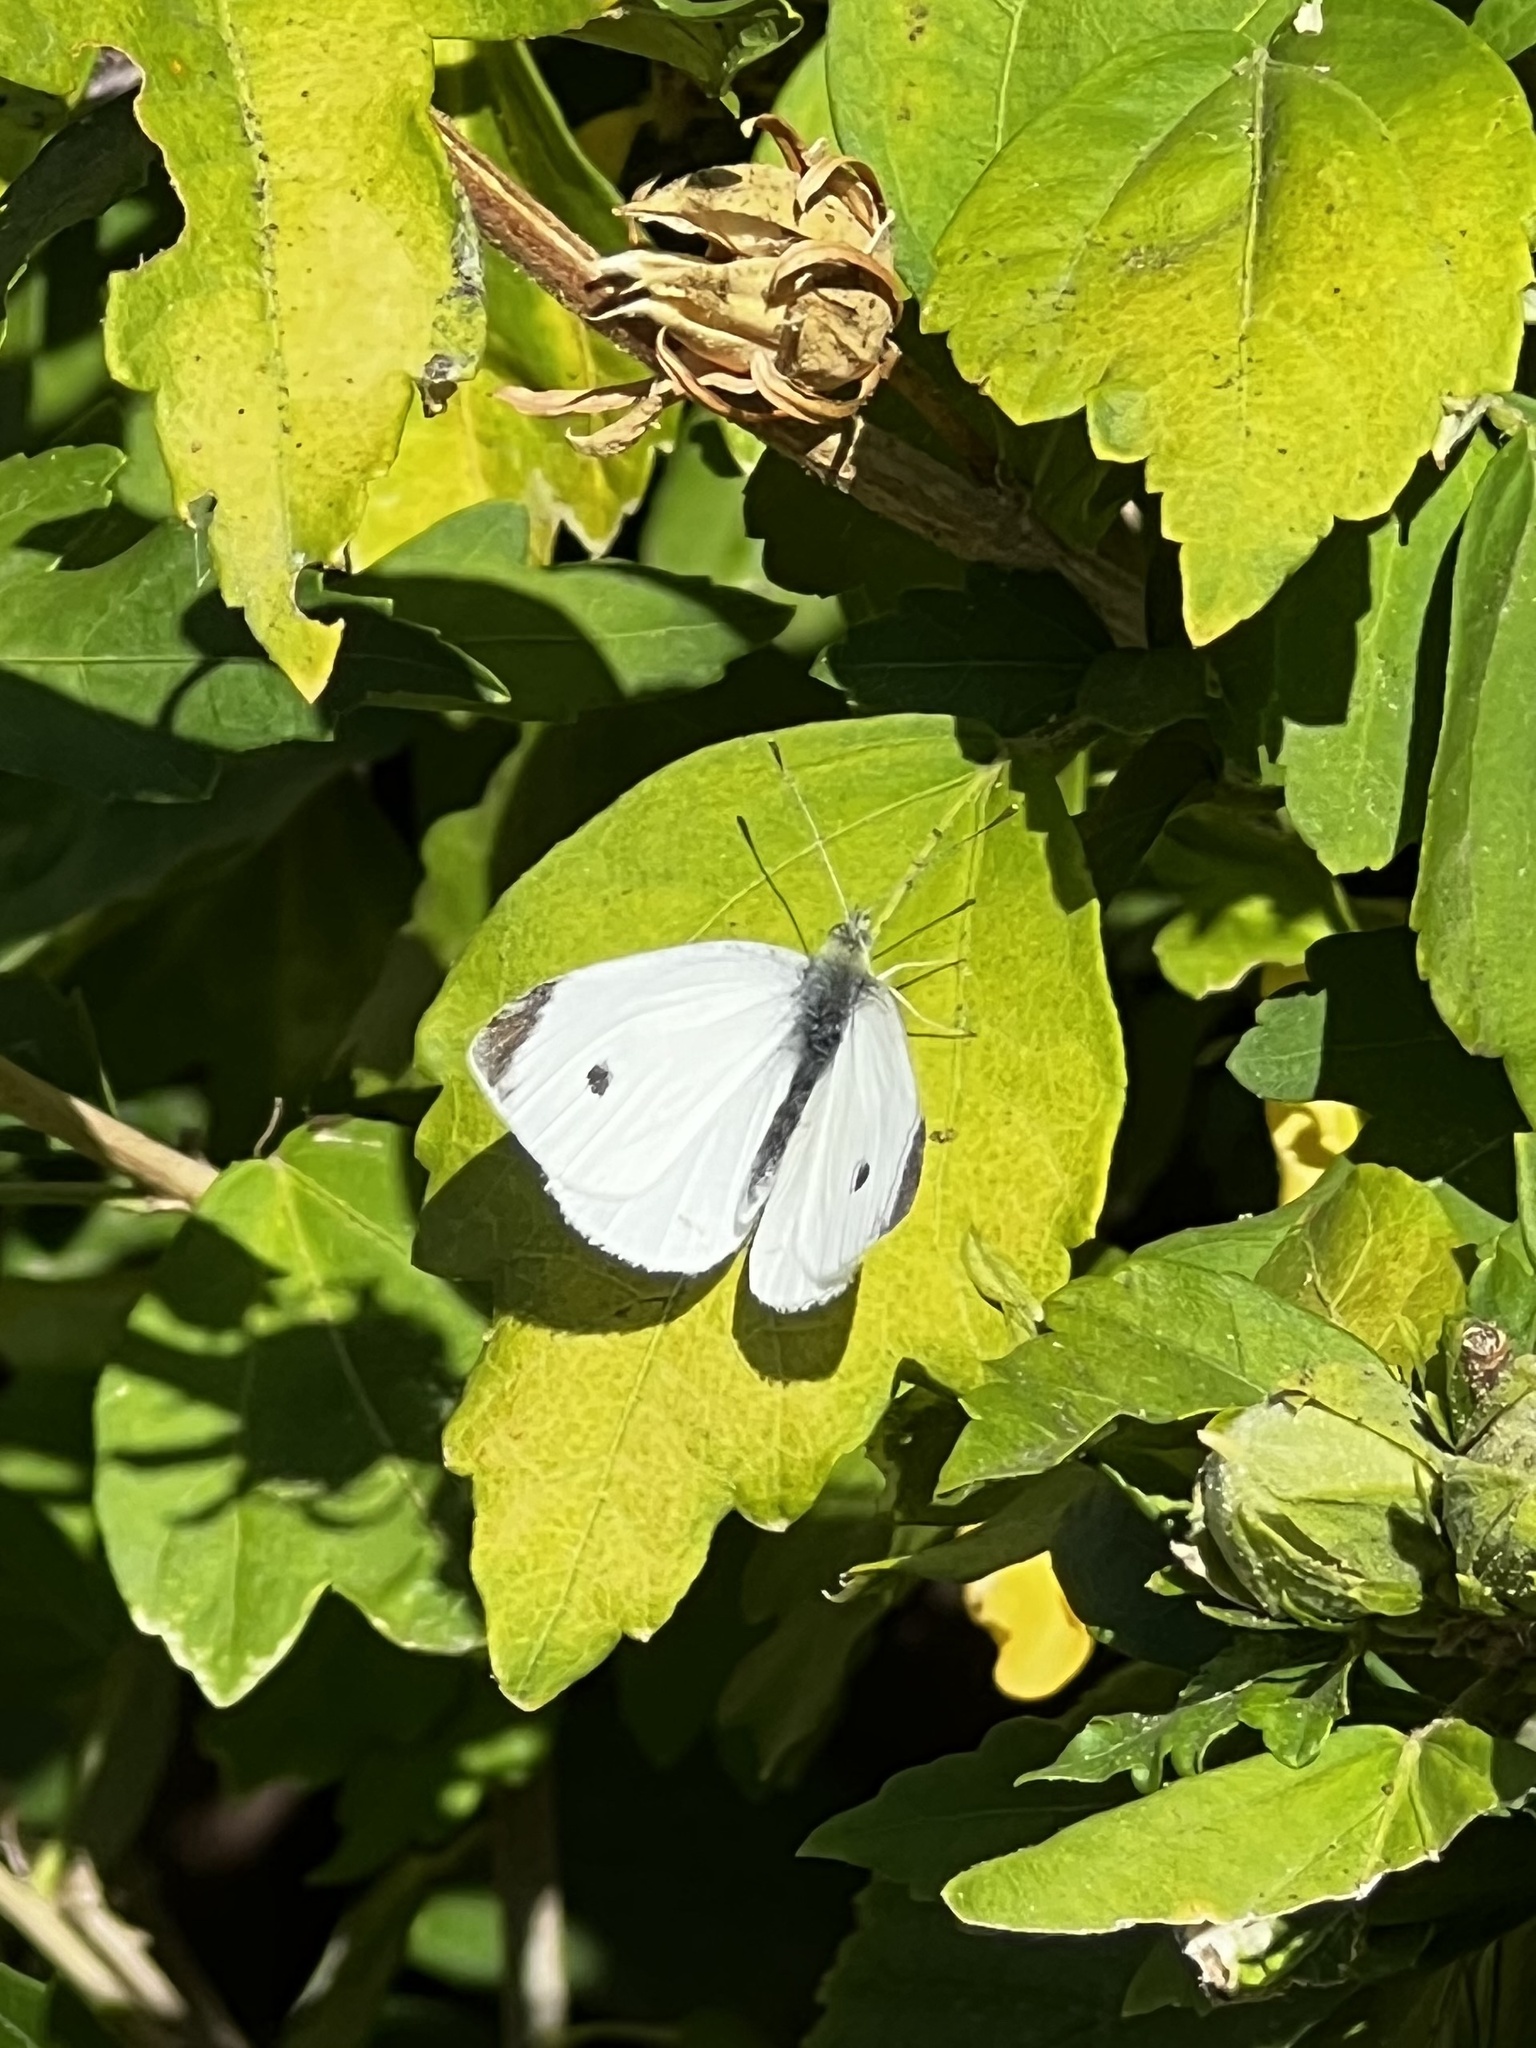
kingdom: Animalia
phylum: Arthropoda
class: Insecta
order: Lepidoptera
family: Pieridae
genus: Pieris
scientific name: Pieris rapae
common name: Small white
